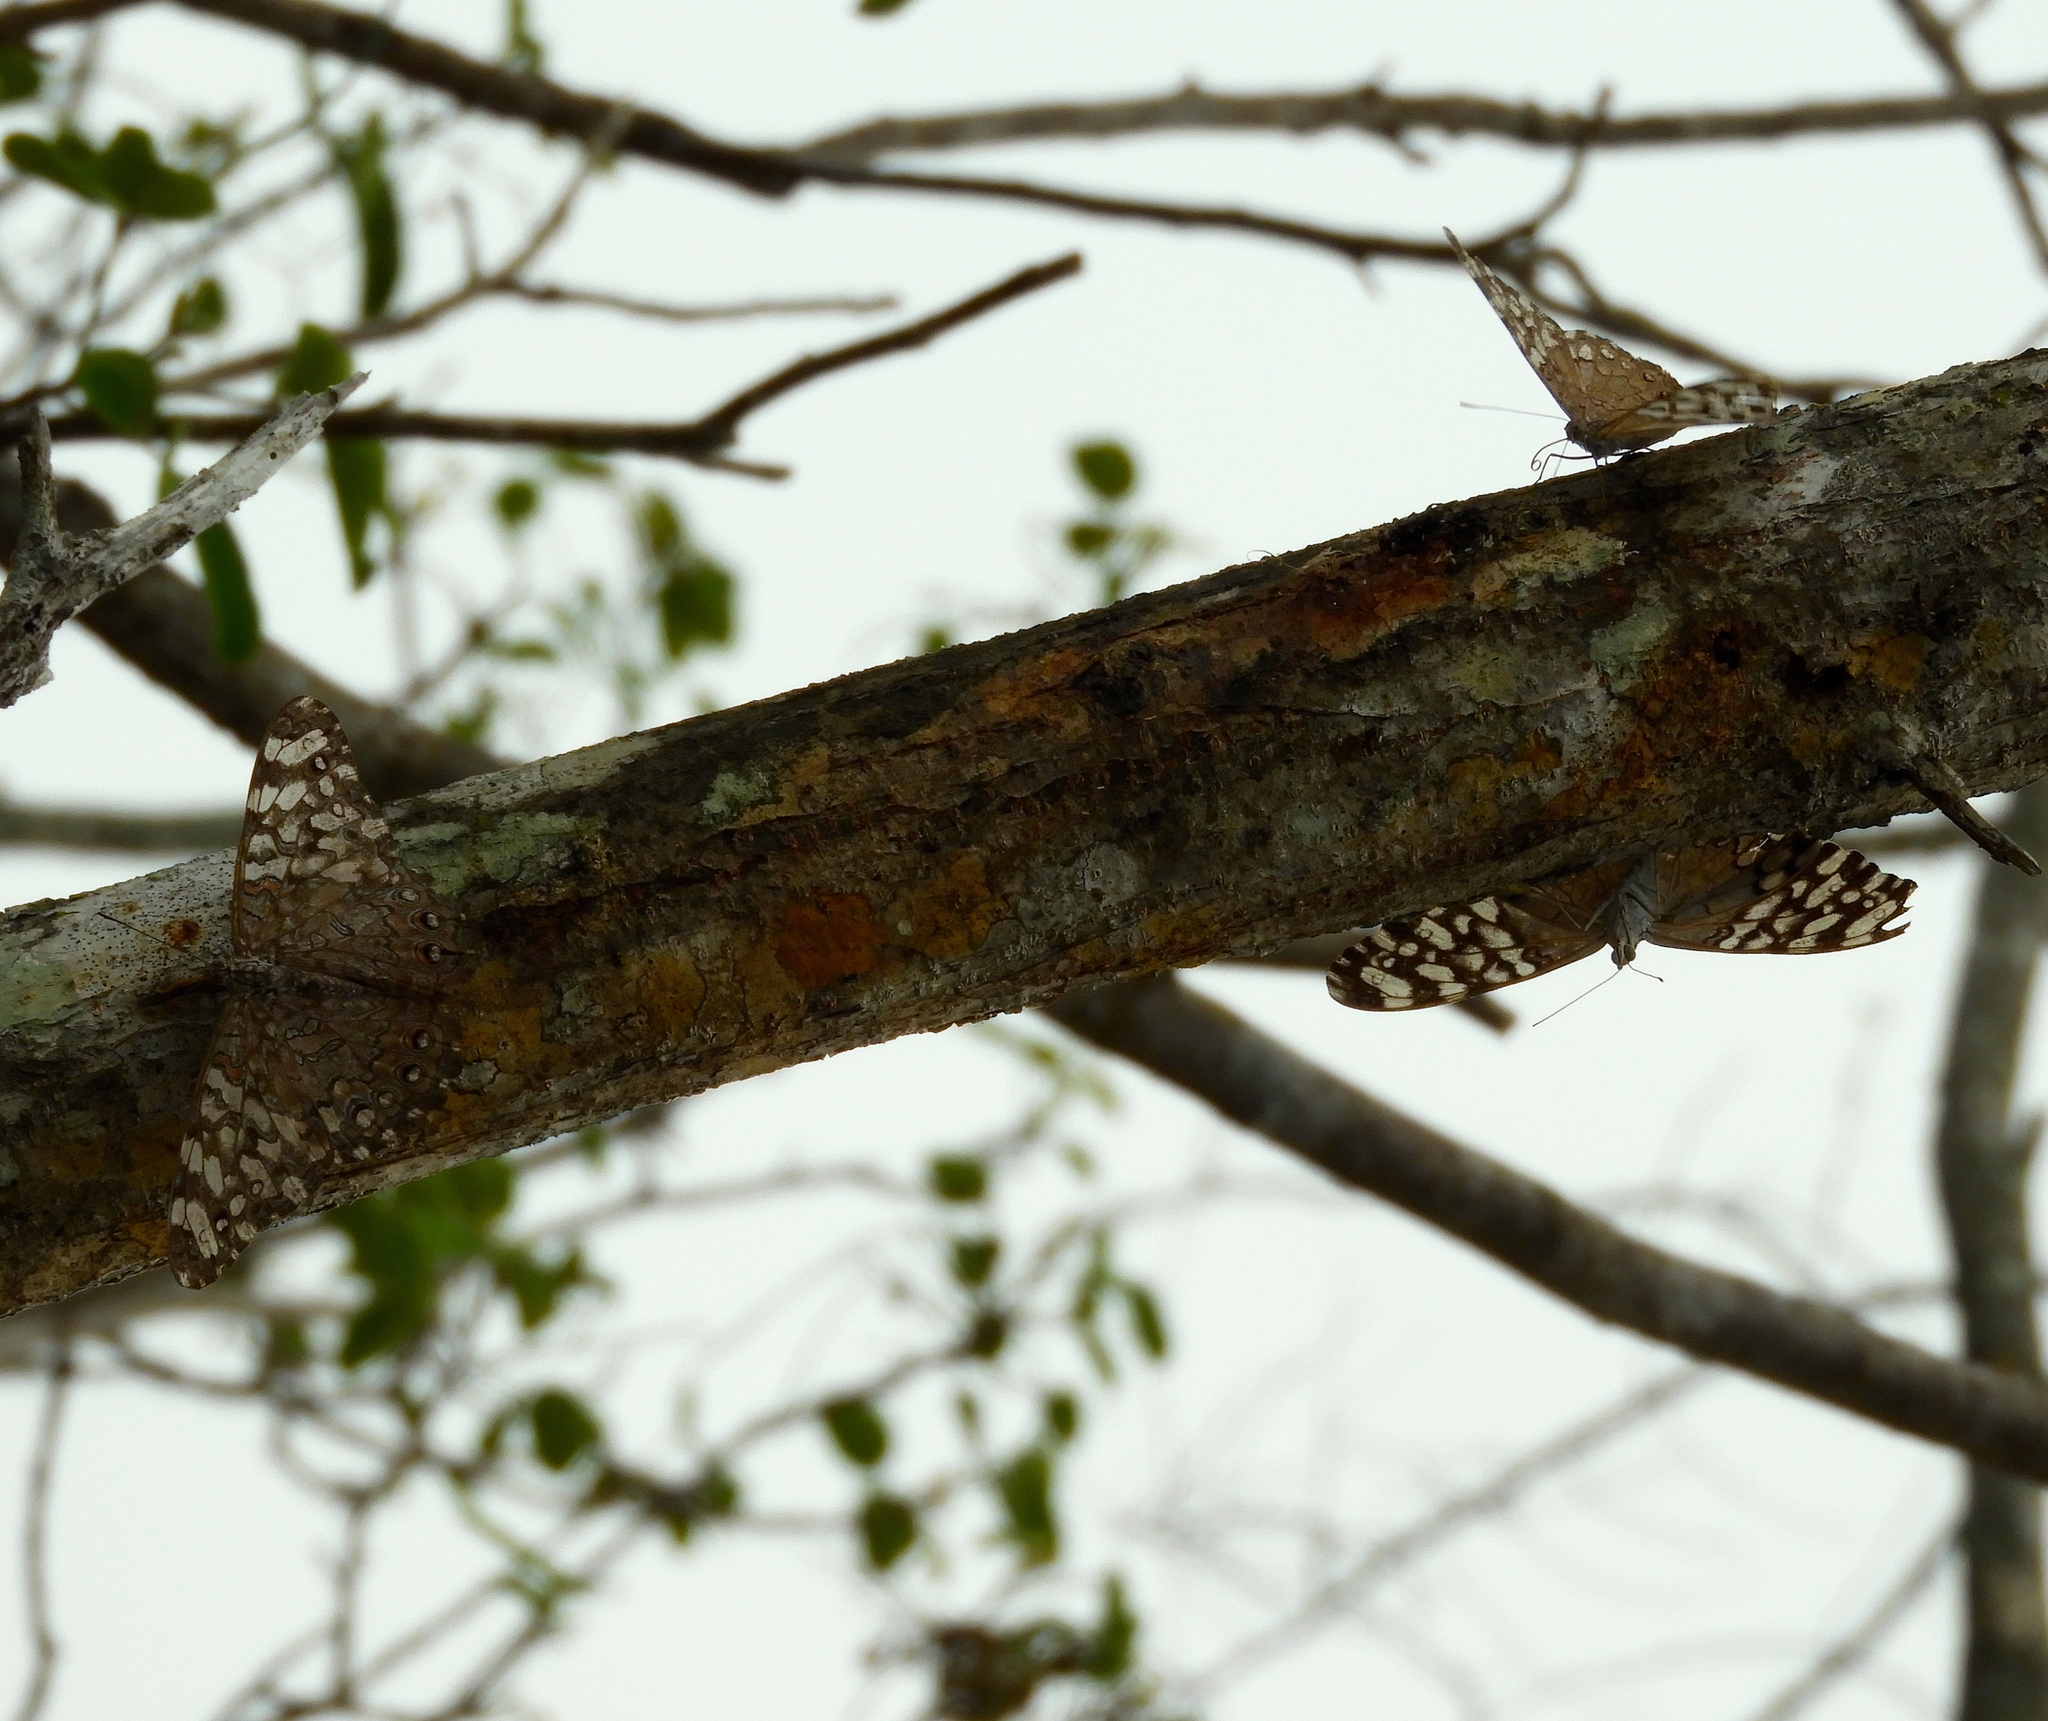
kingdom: Animalia
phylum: Arthropoda
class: Insecta
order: Lepidoptera
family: Nymphalidae
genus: Hamadryas
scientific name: Hamadryas februa
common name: Gray cracker
